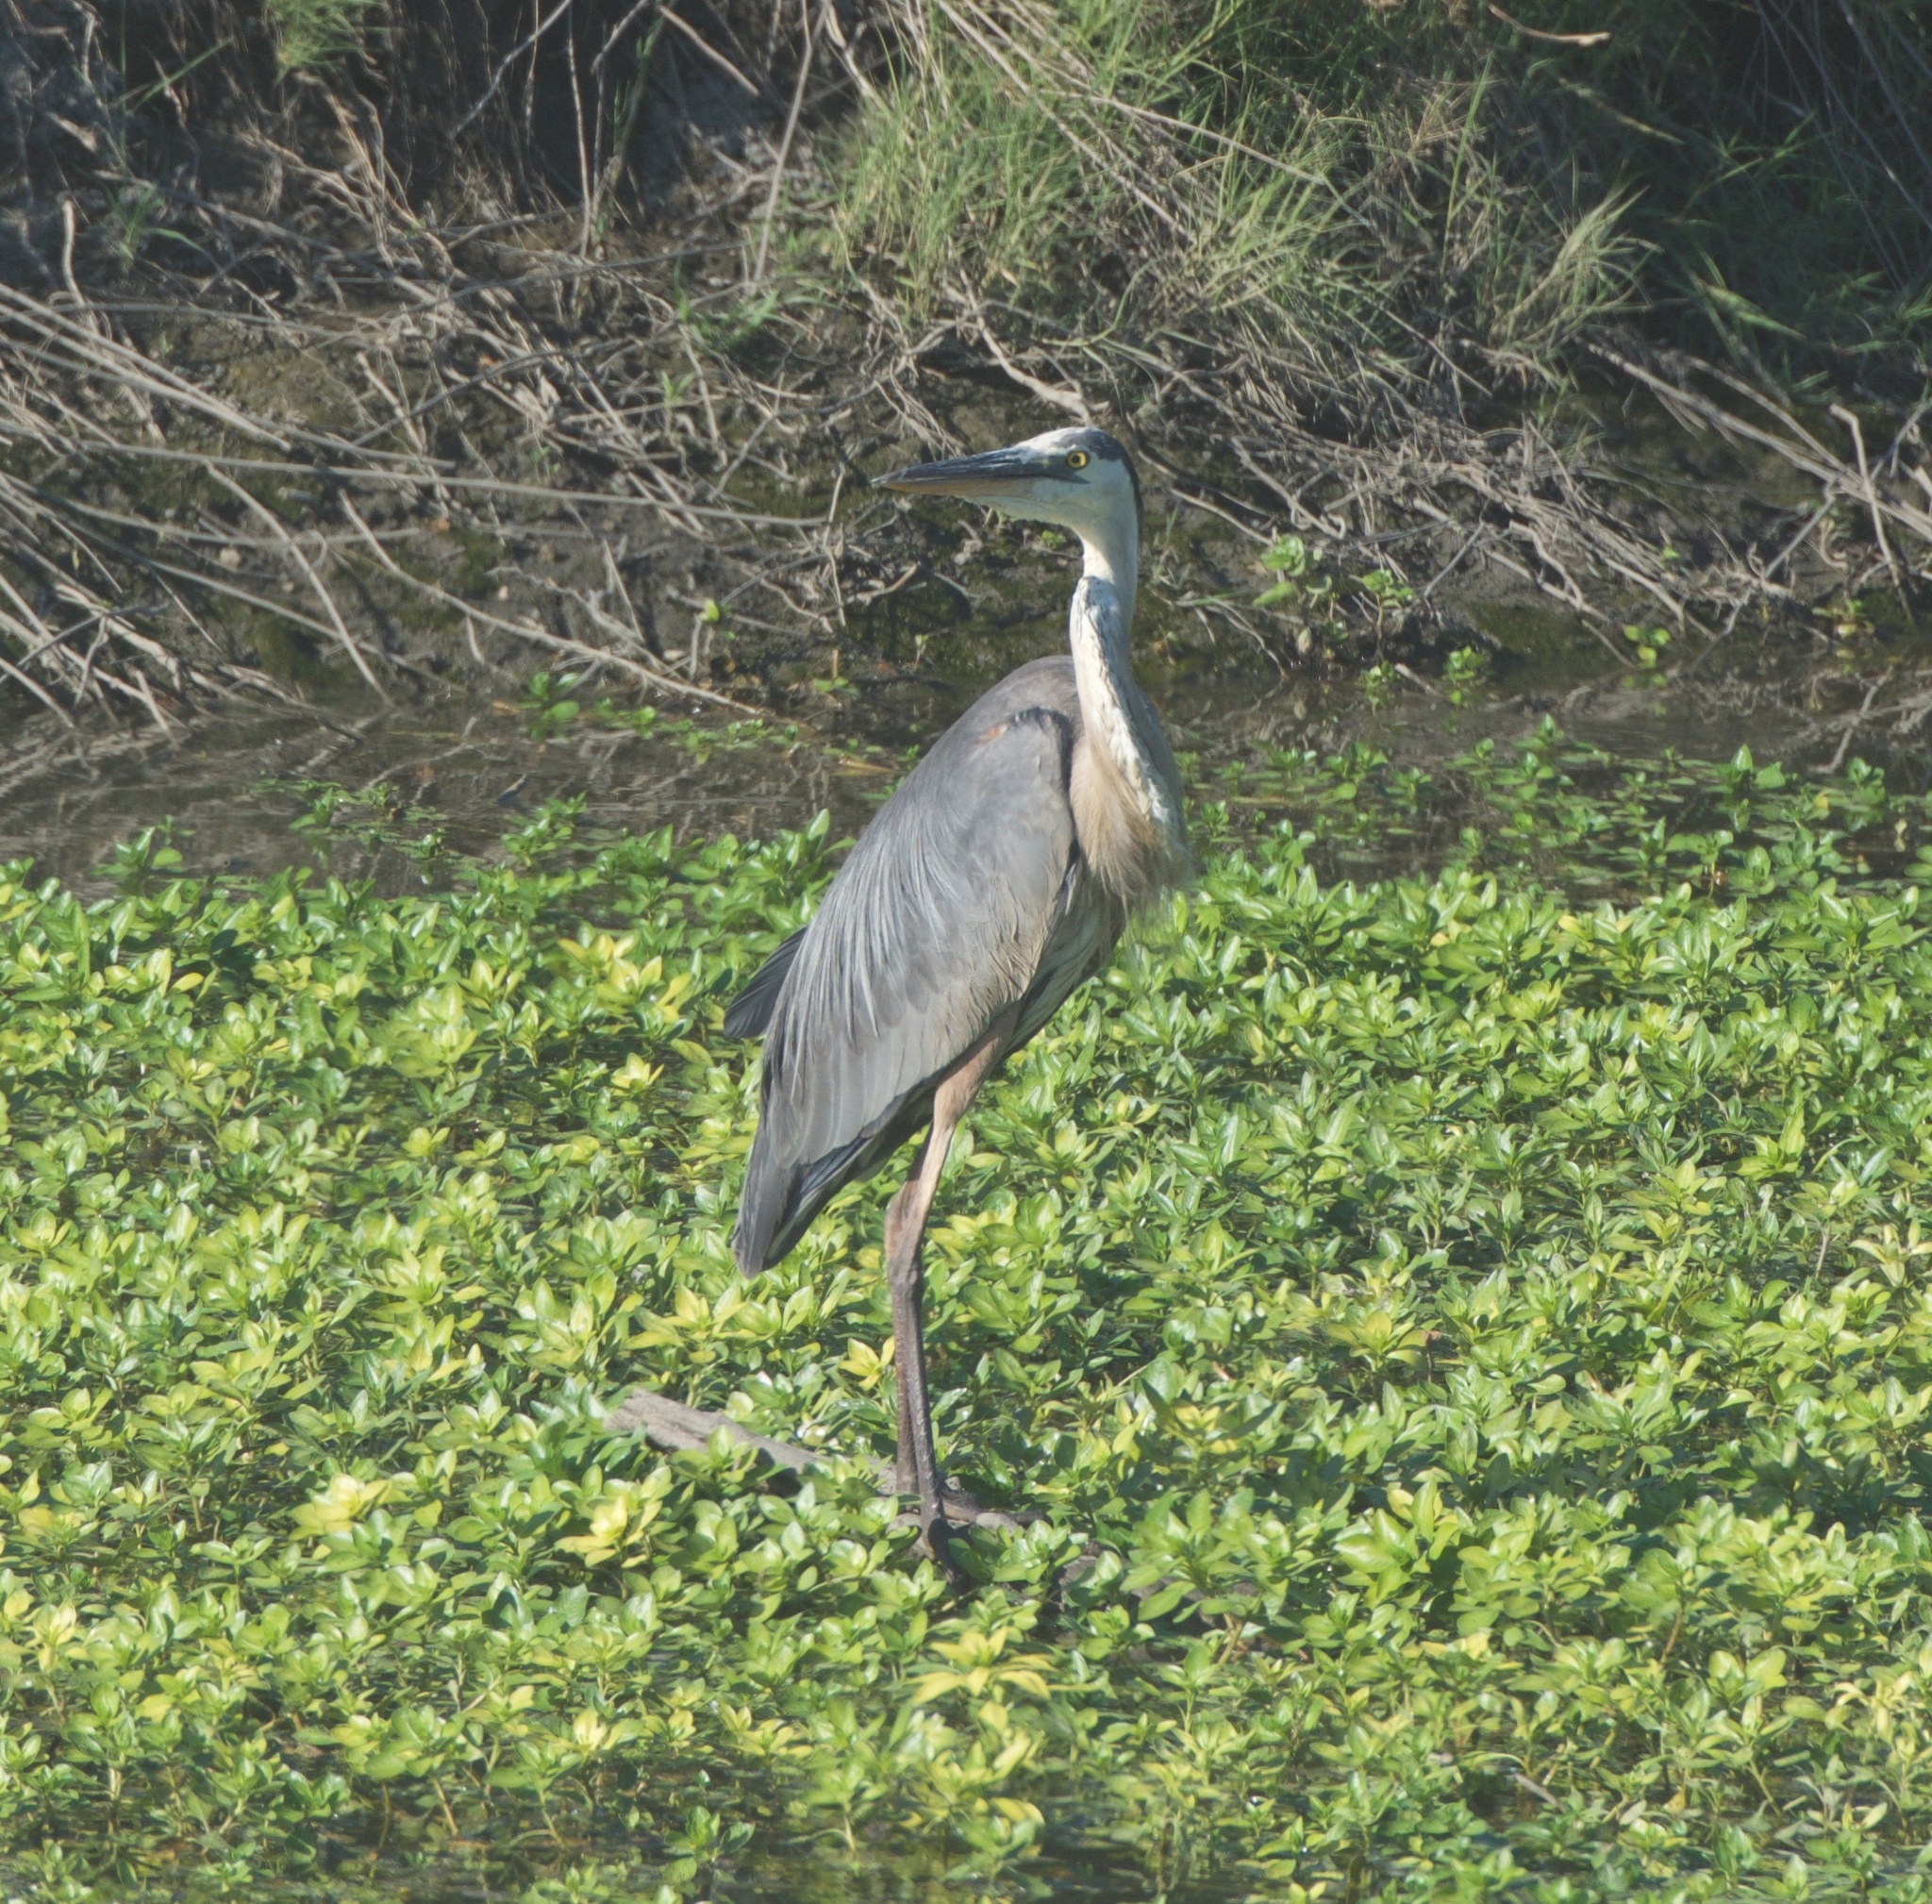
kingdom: Animalia
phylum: Chordata
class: Aves
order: Pelecaniformes
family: Ardeidae
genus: Ardea
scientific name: Ardea herodias
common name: Great blue heron
